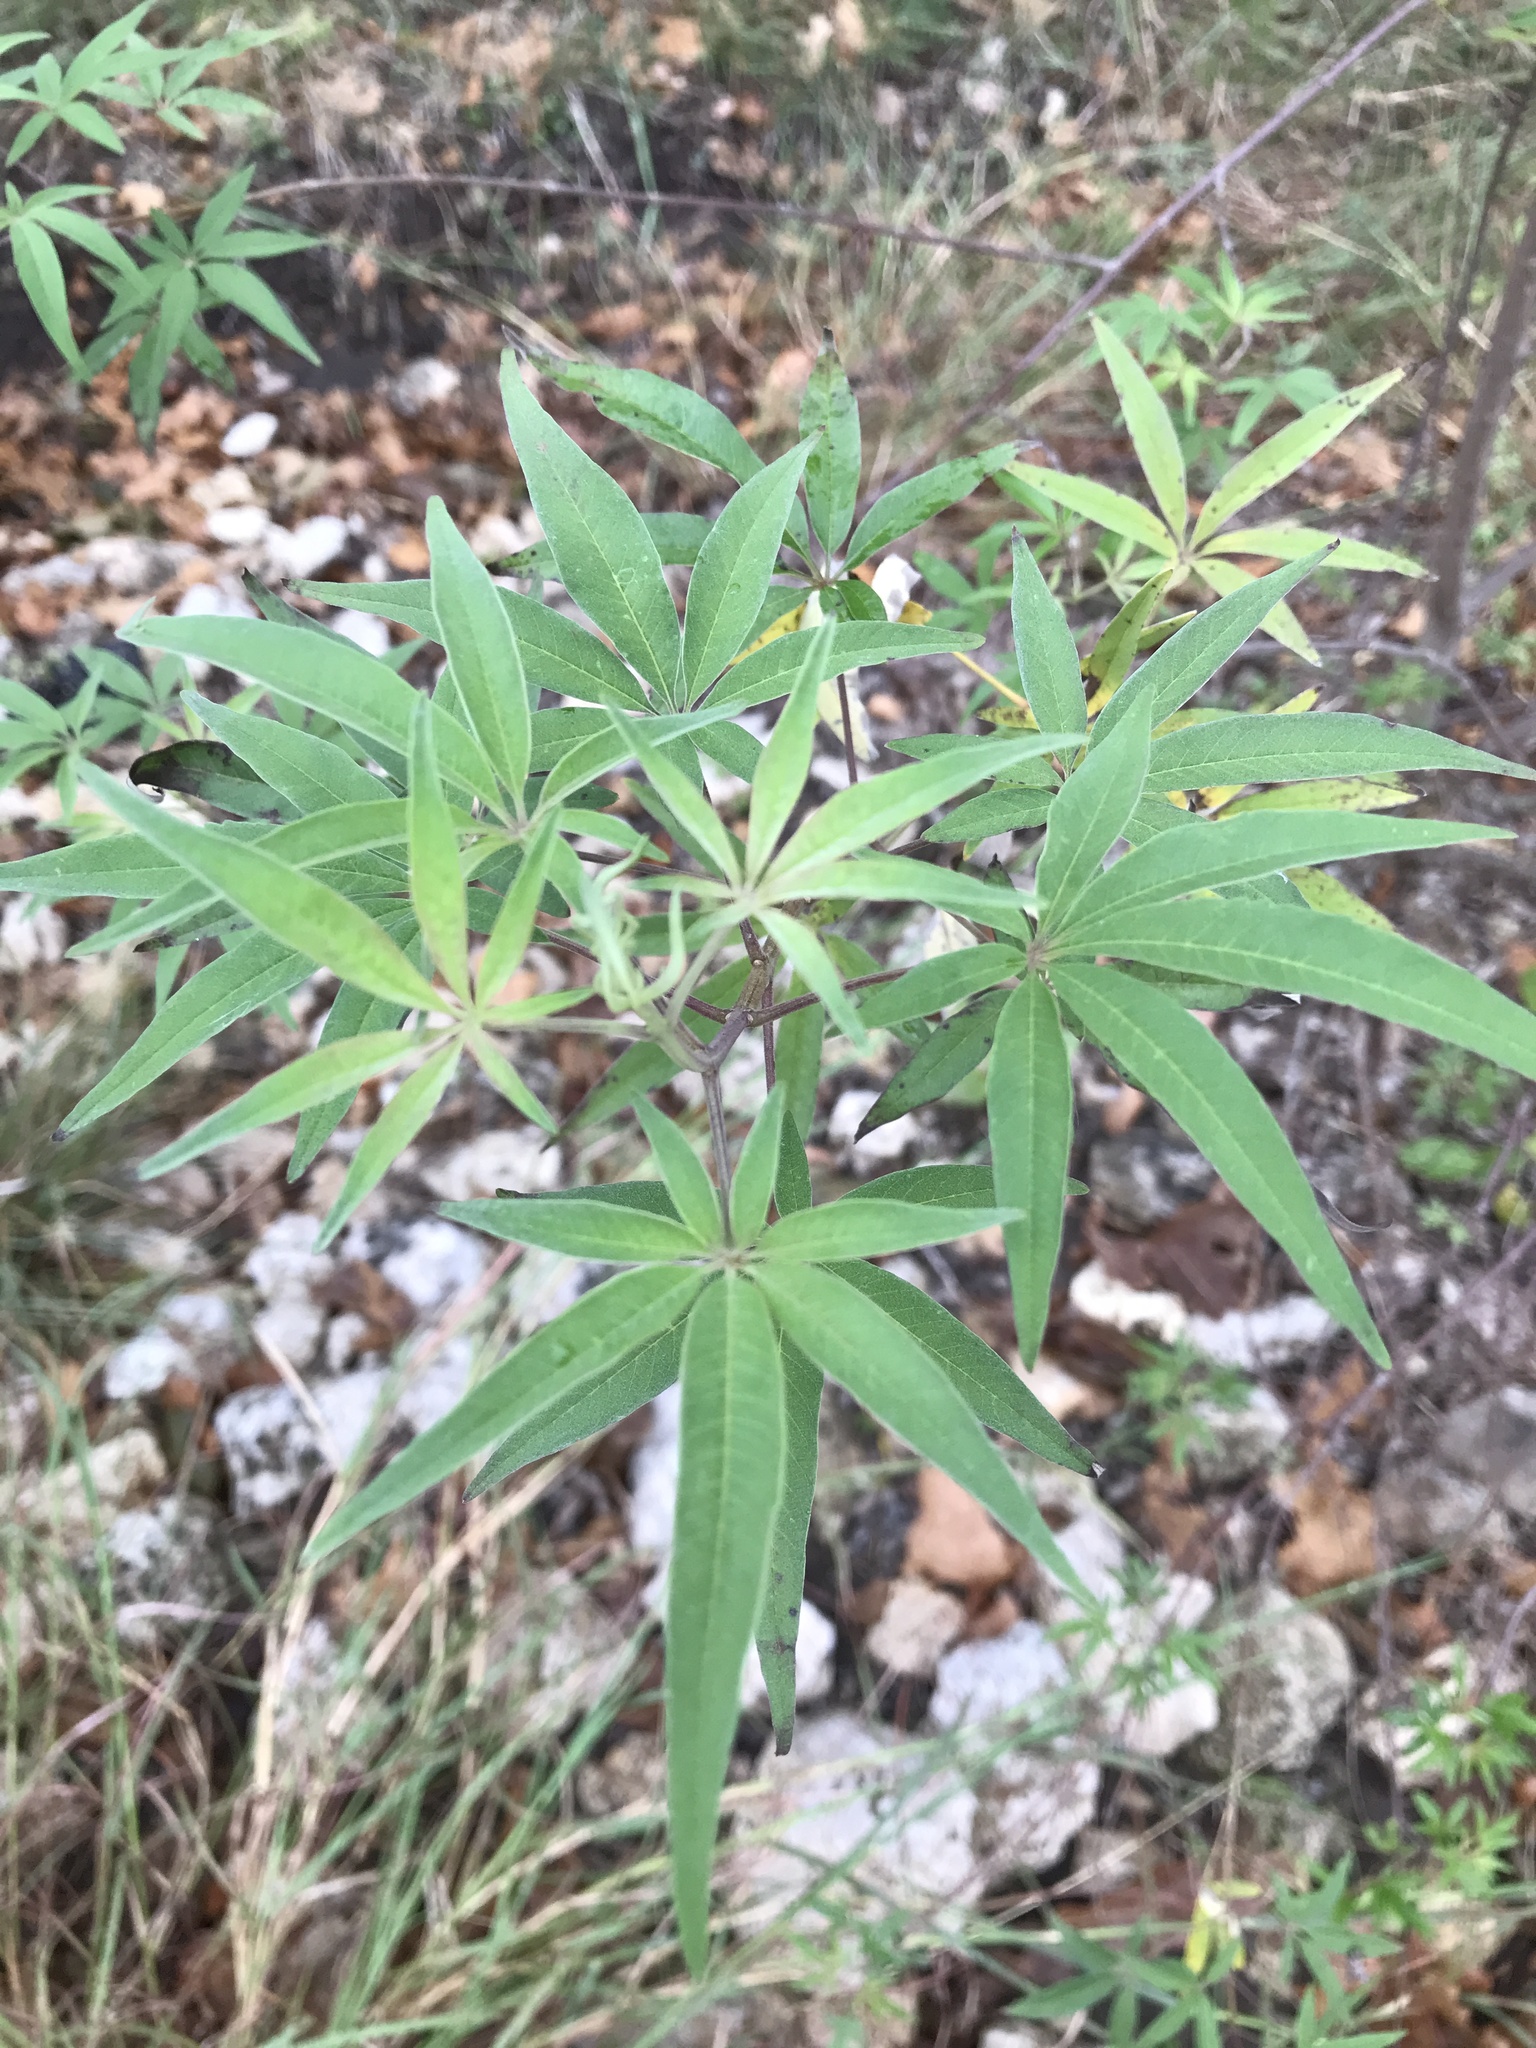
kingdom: Plantae
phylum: Tracheophyta
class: Magnoliopsida
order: Lamiales
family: Lamiaceae
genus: Vitex
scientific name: Vitex agnus-castus
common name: Chasteberry
